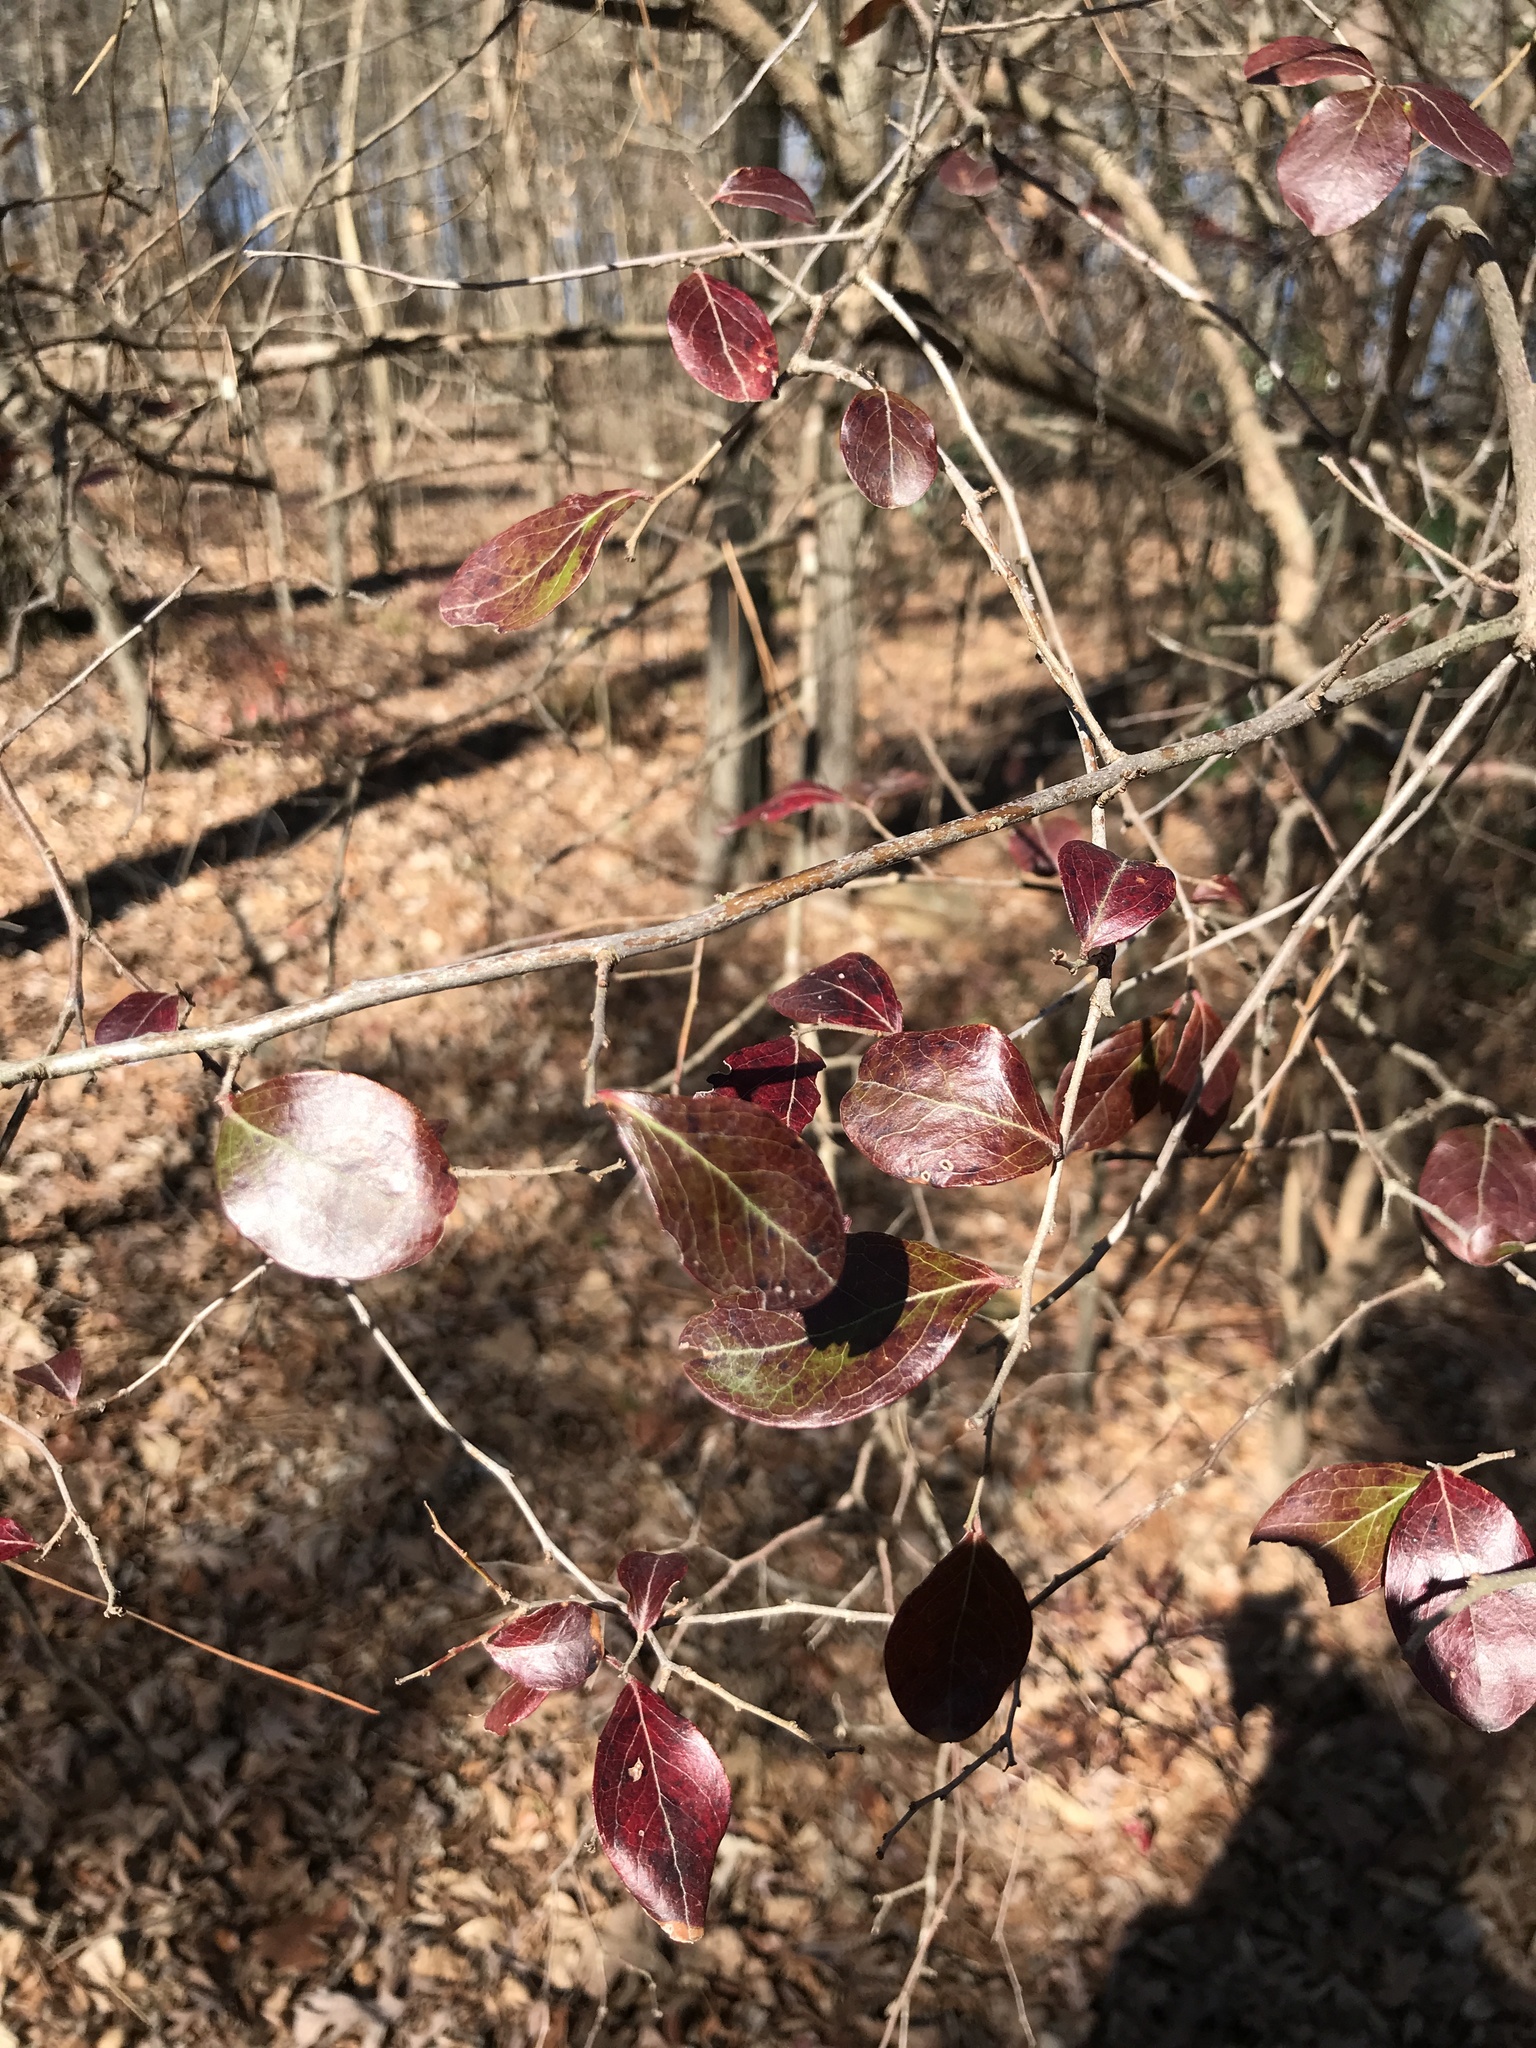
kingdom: Plantae
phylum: Tracheophyta
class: Magnoliopsida
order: Ericales
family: Ericaceae
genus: Vaccinium
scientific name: Vaccinium arboreum
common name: Farkleberry
